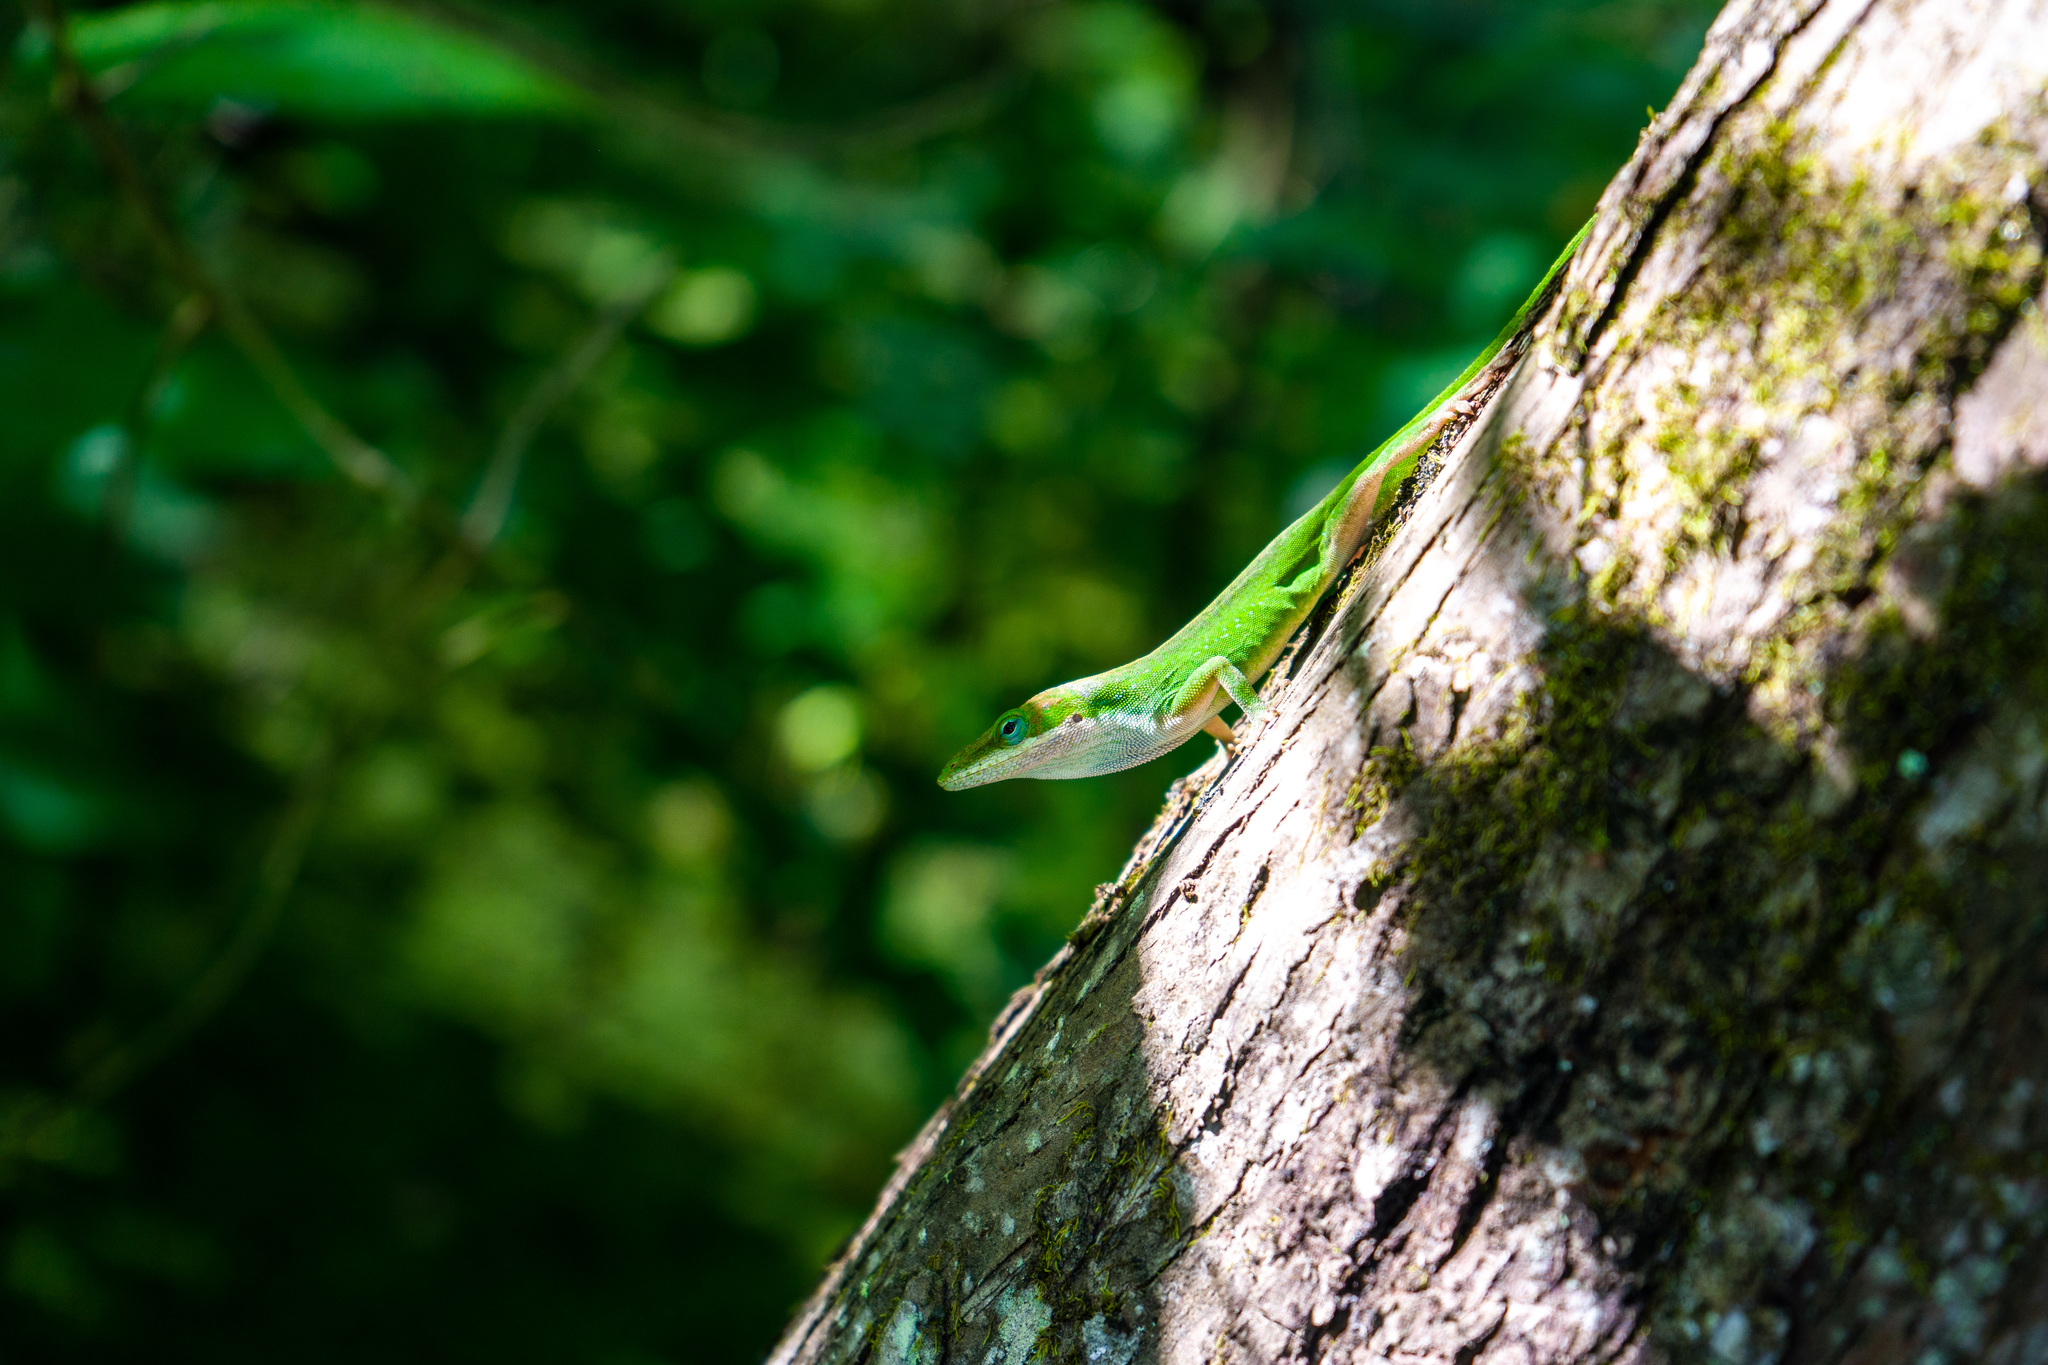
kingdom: Animalia
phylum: Chordata
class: Squamata
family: Dactyloidae
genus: Anolis
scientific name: Anolis carolinensis
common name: Green anole
